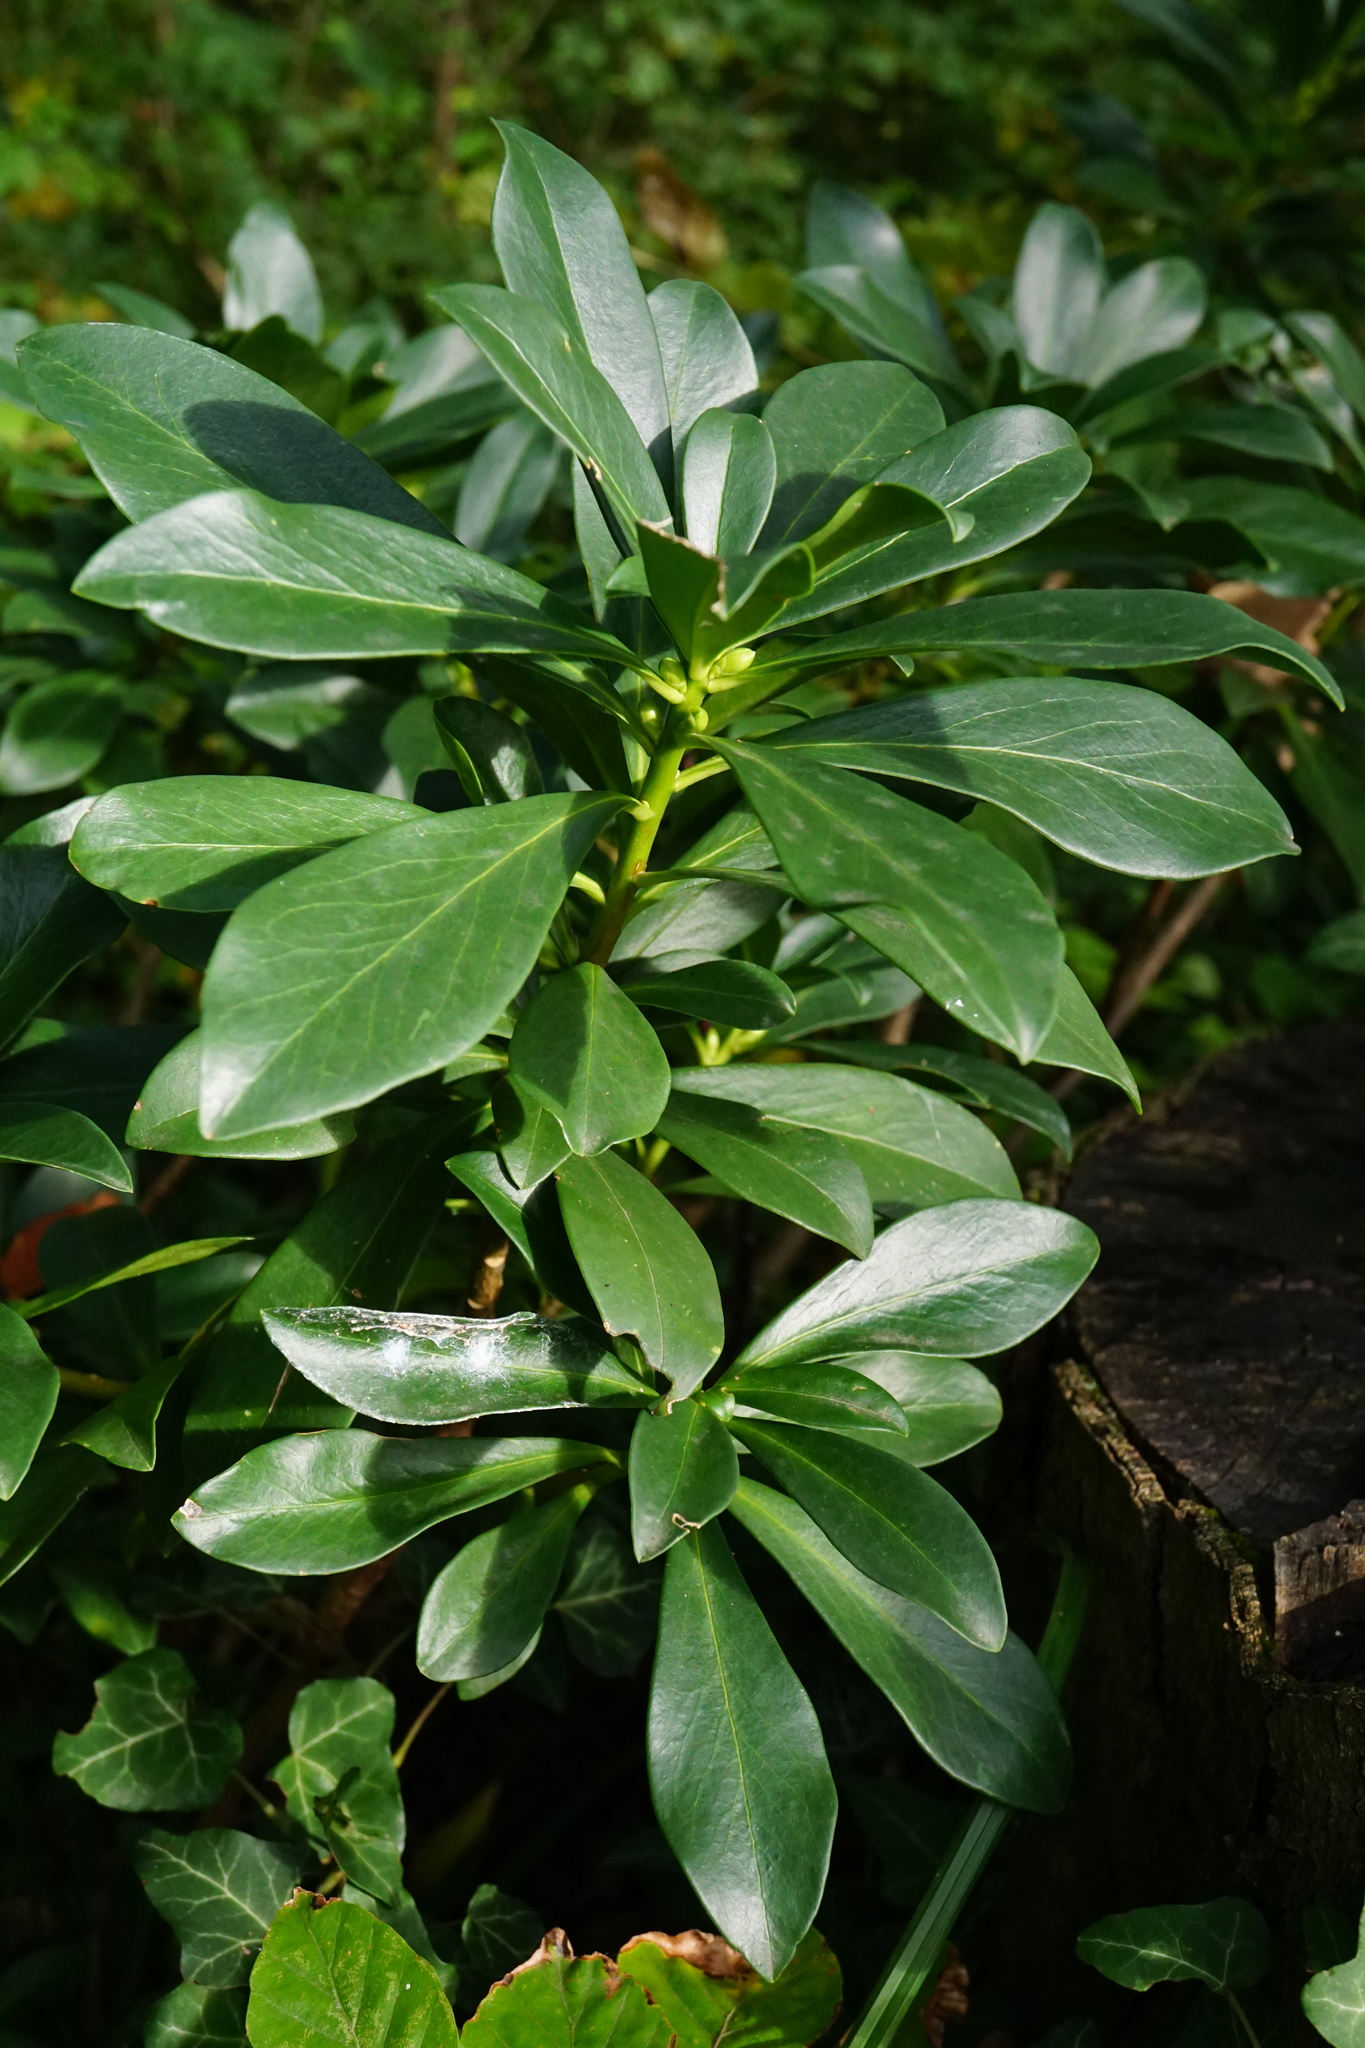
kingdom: Plantae
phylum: Tracheophyta
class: Magnoliopsida
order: Malvales
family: Thymelaeaceae
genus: Daphne
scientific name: Daphne laureola
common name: Spurge-laurel
